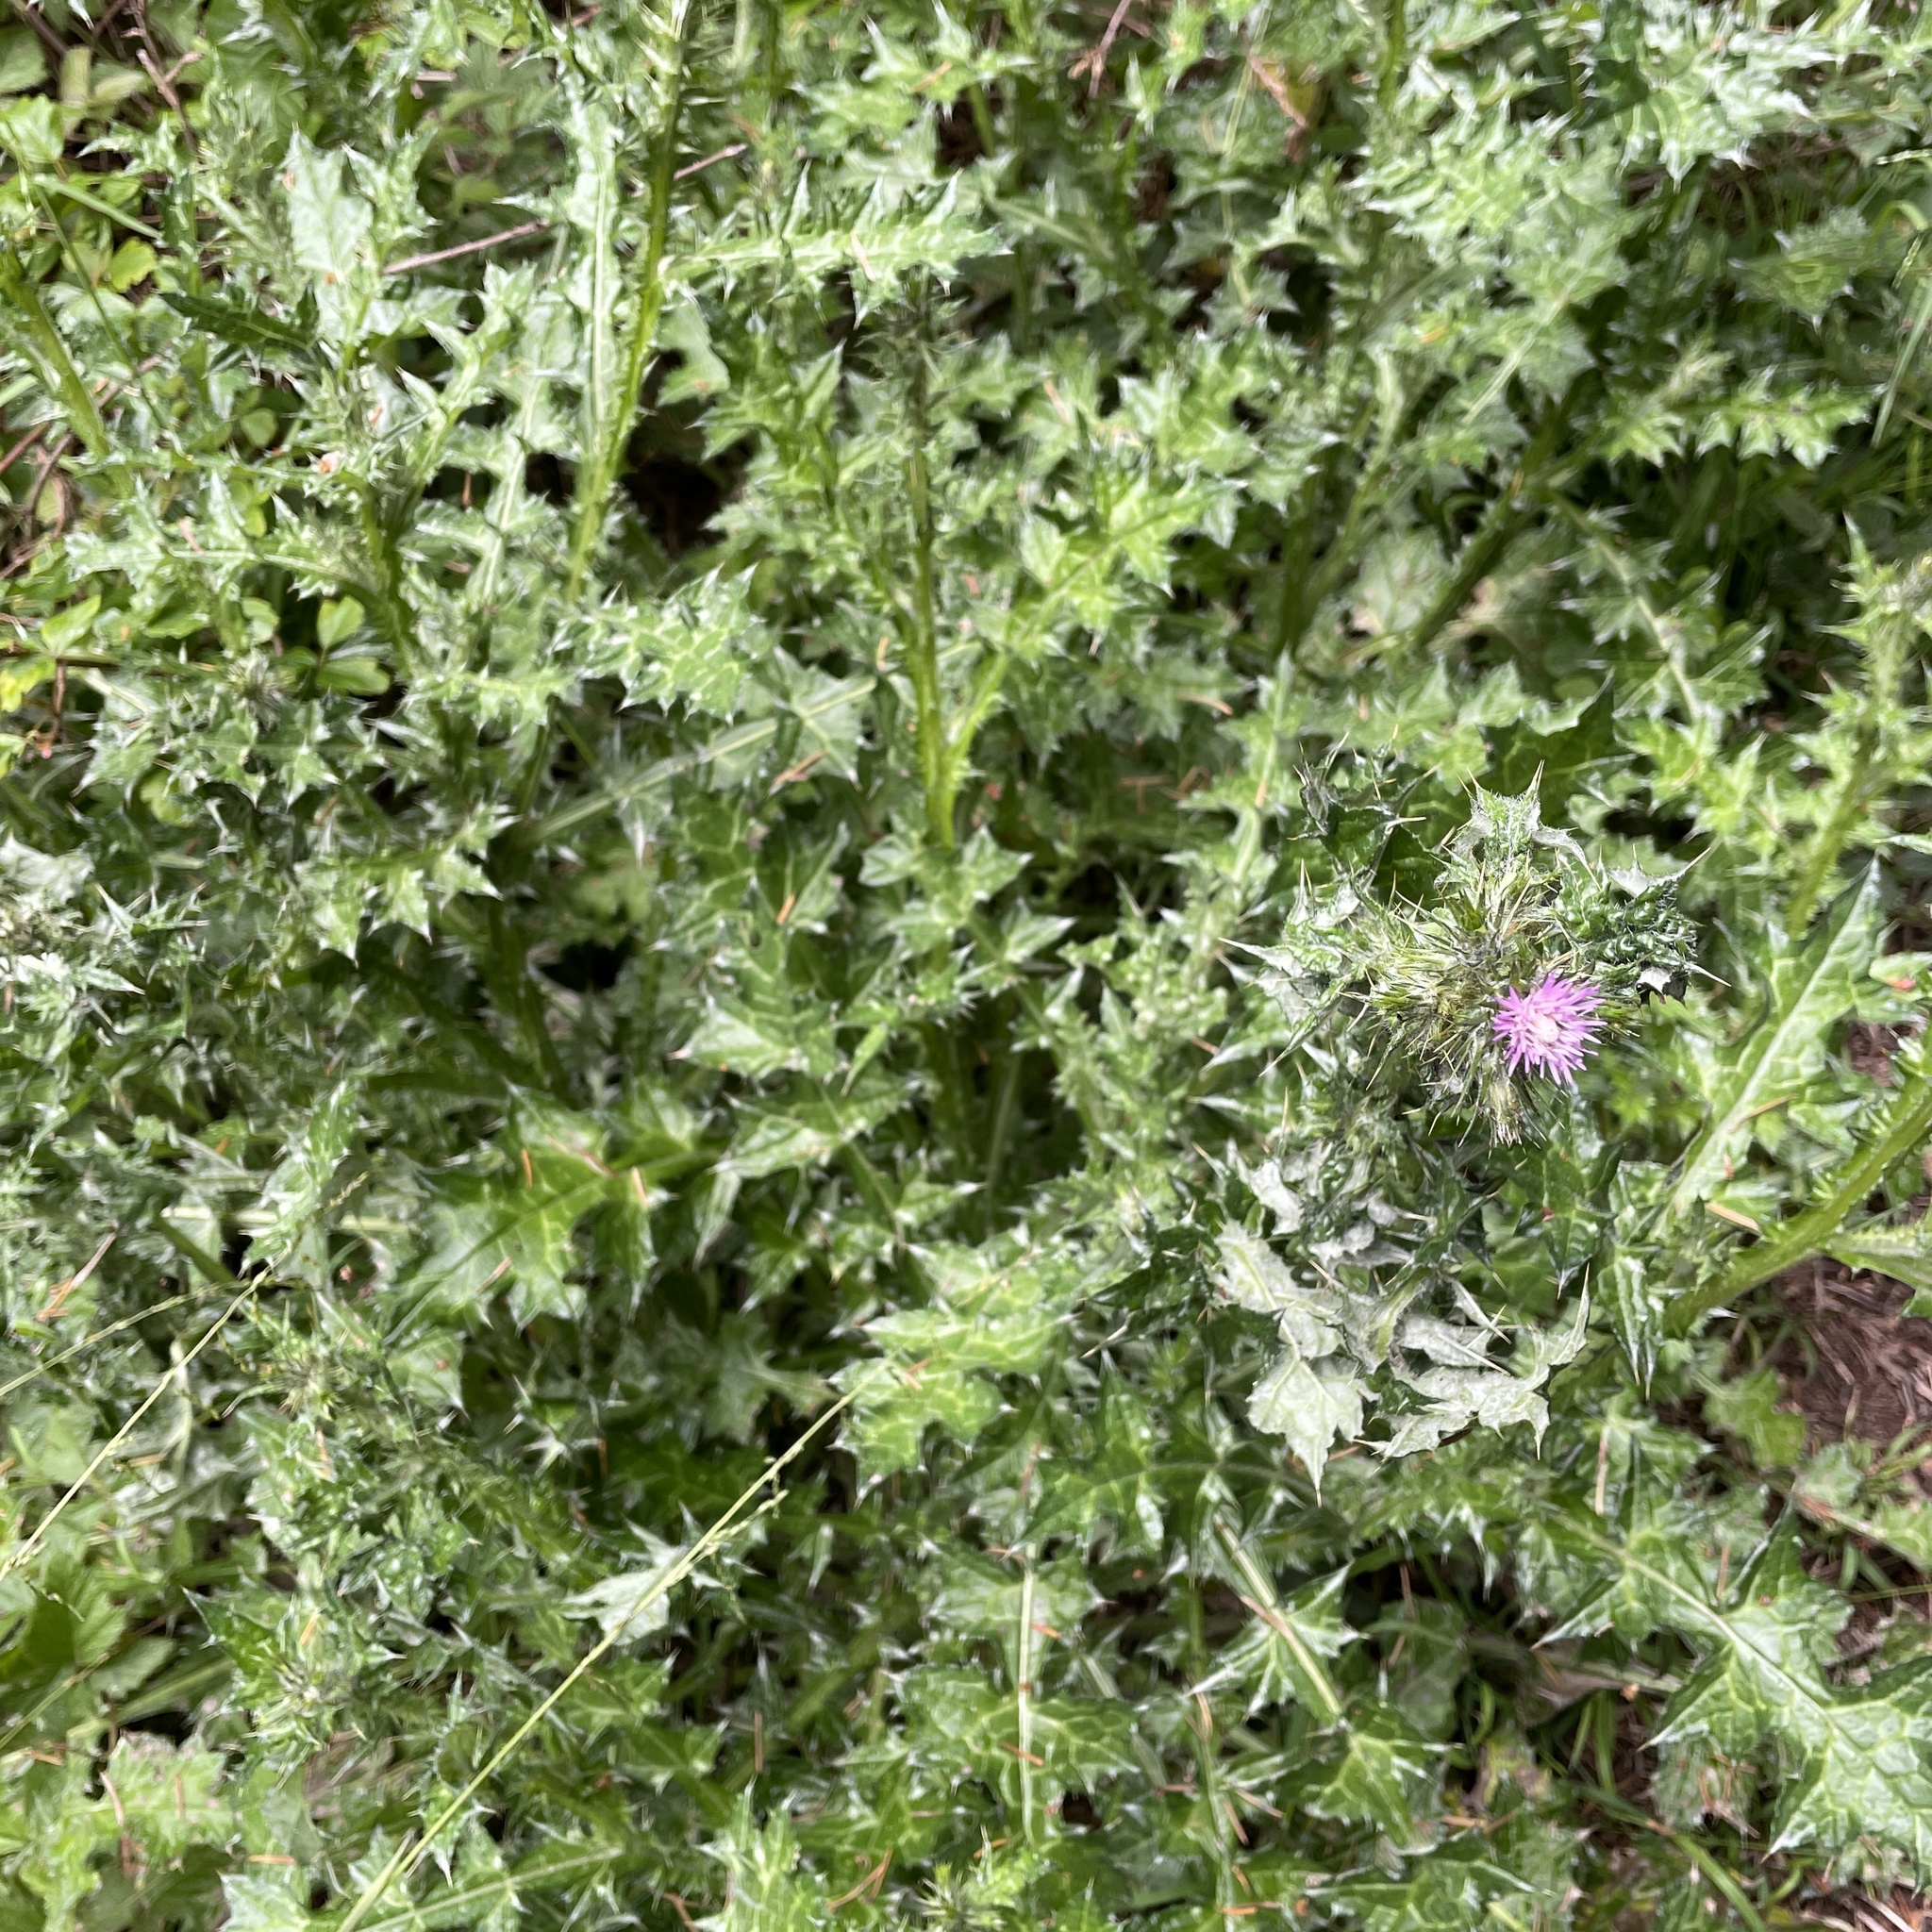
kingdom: Plantae
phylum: Tracheophyta
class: Magnoliopsida
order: Asterales
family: Asteraceae
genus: Carduus
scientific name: Carduus pycnocephalus
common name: Plymouth thistle
